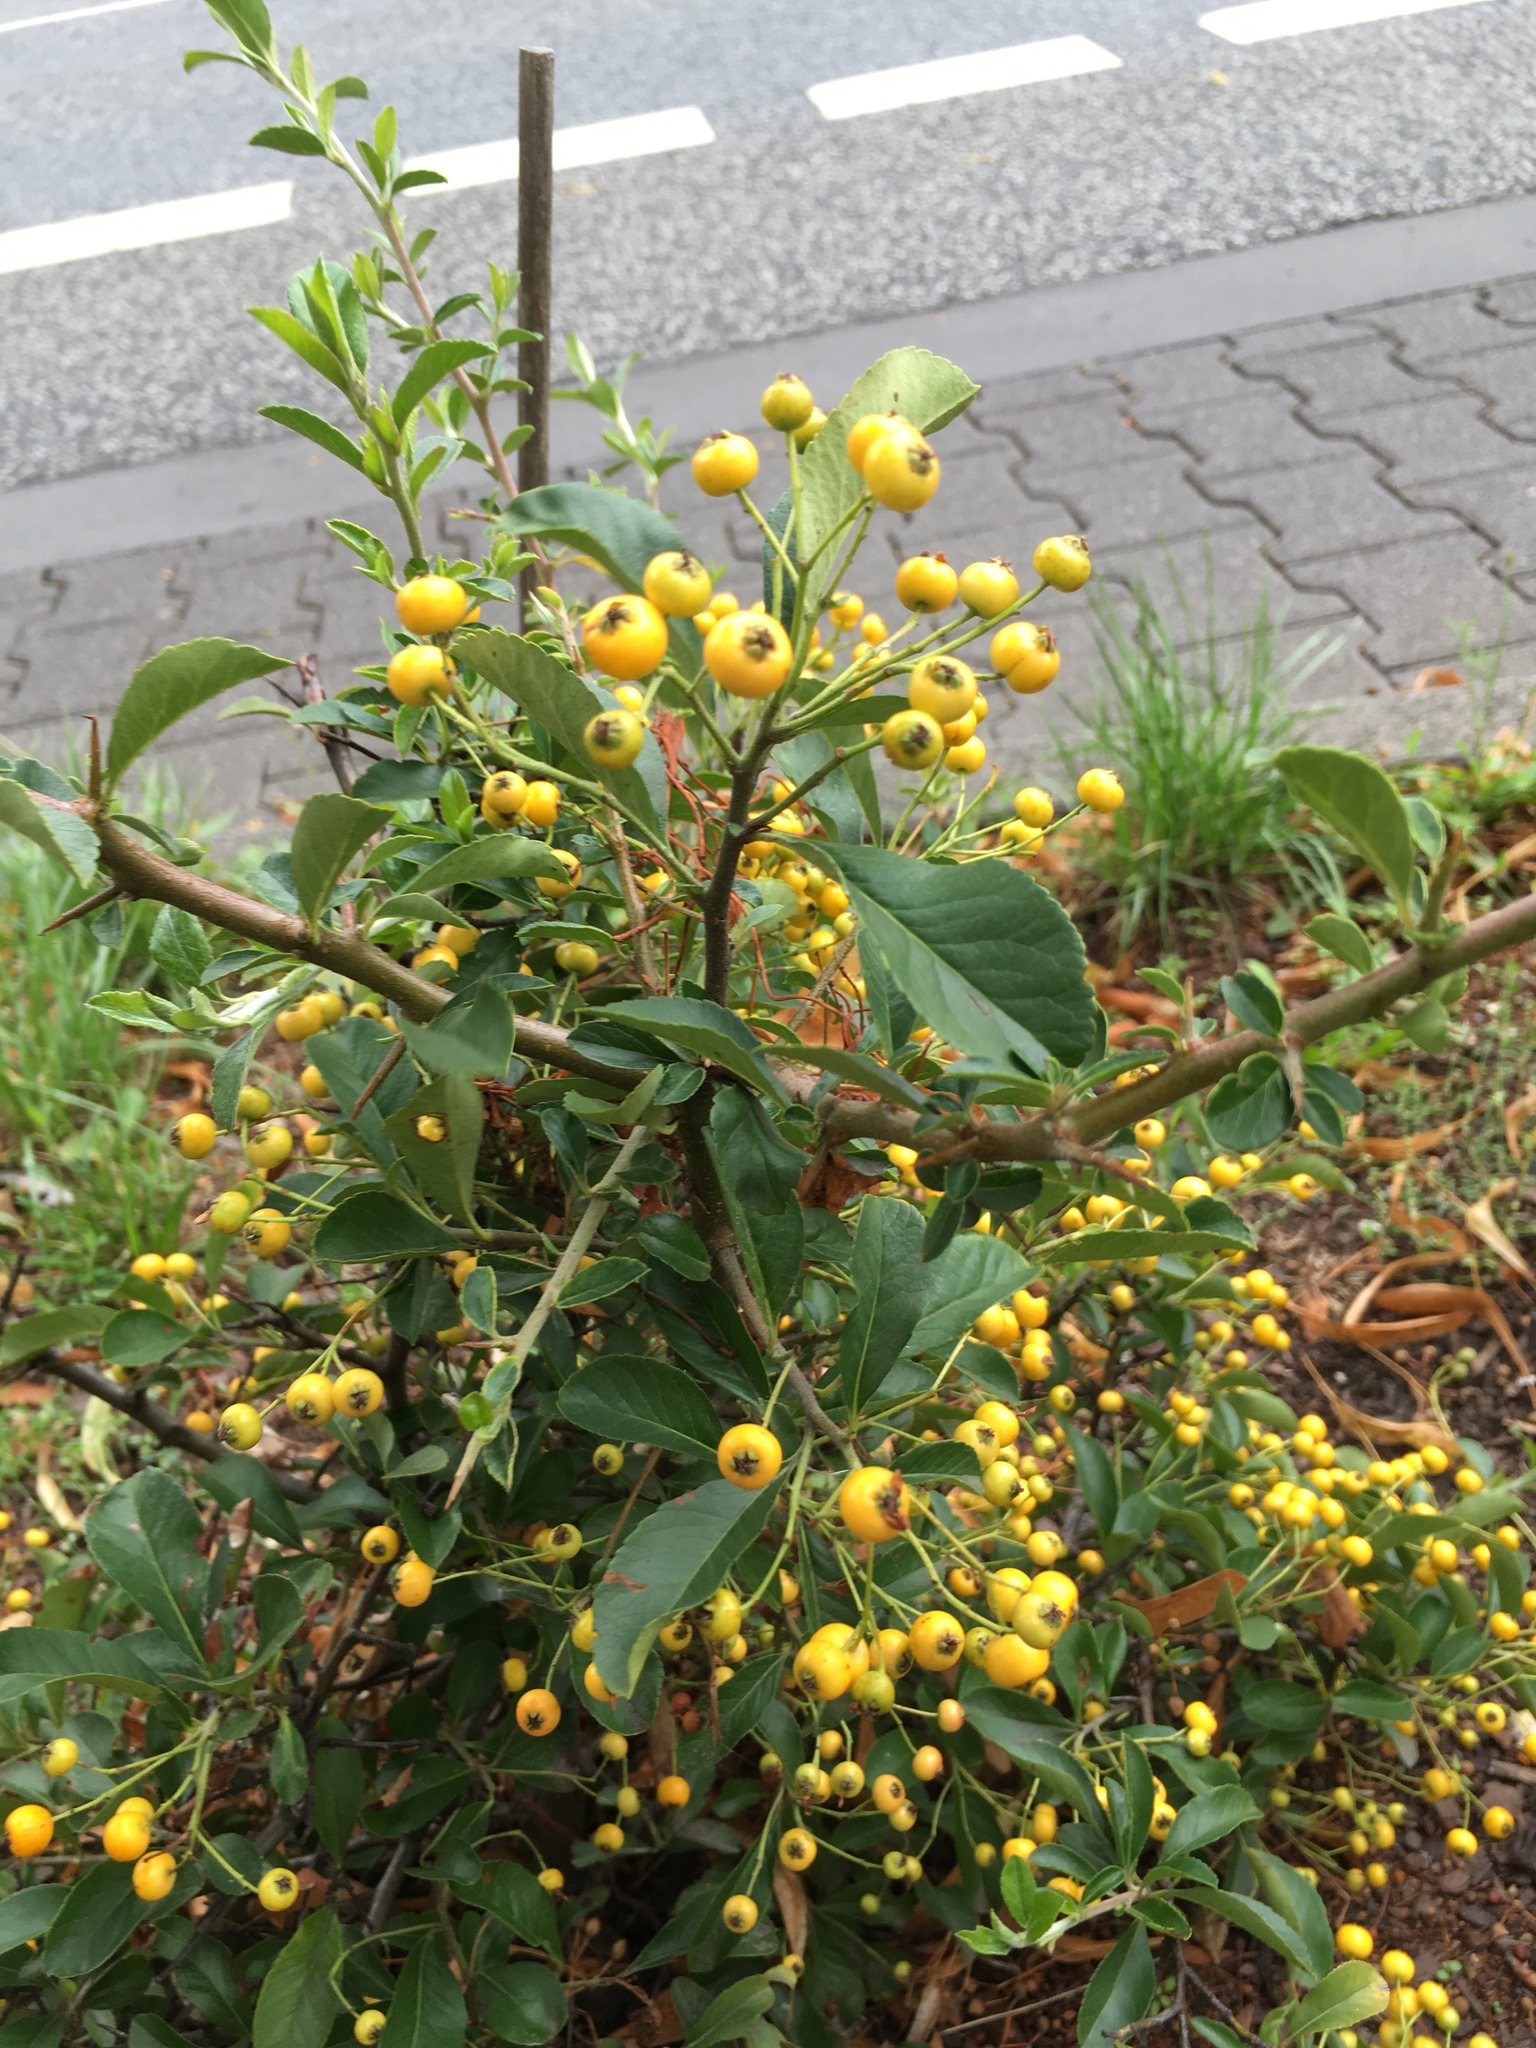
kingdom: Plantae
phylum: Tracheophyta
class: Magnoliopsida
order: Rosales
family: Rosaceae
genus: Pyracantha
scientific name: Pyracantha coccinea
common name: Firethorn
